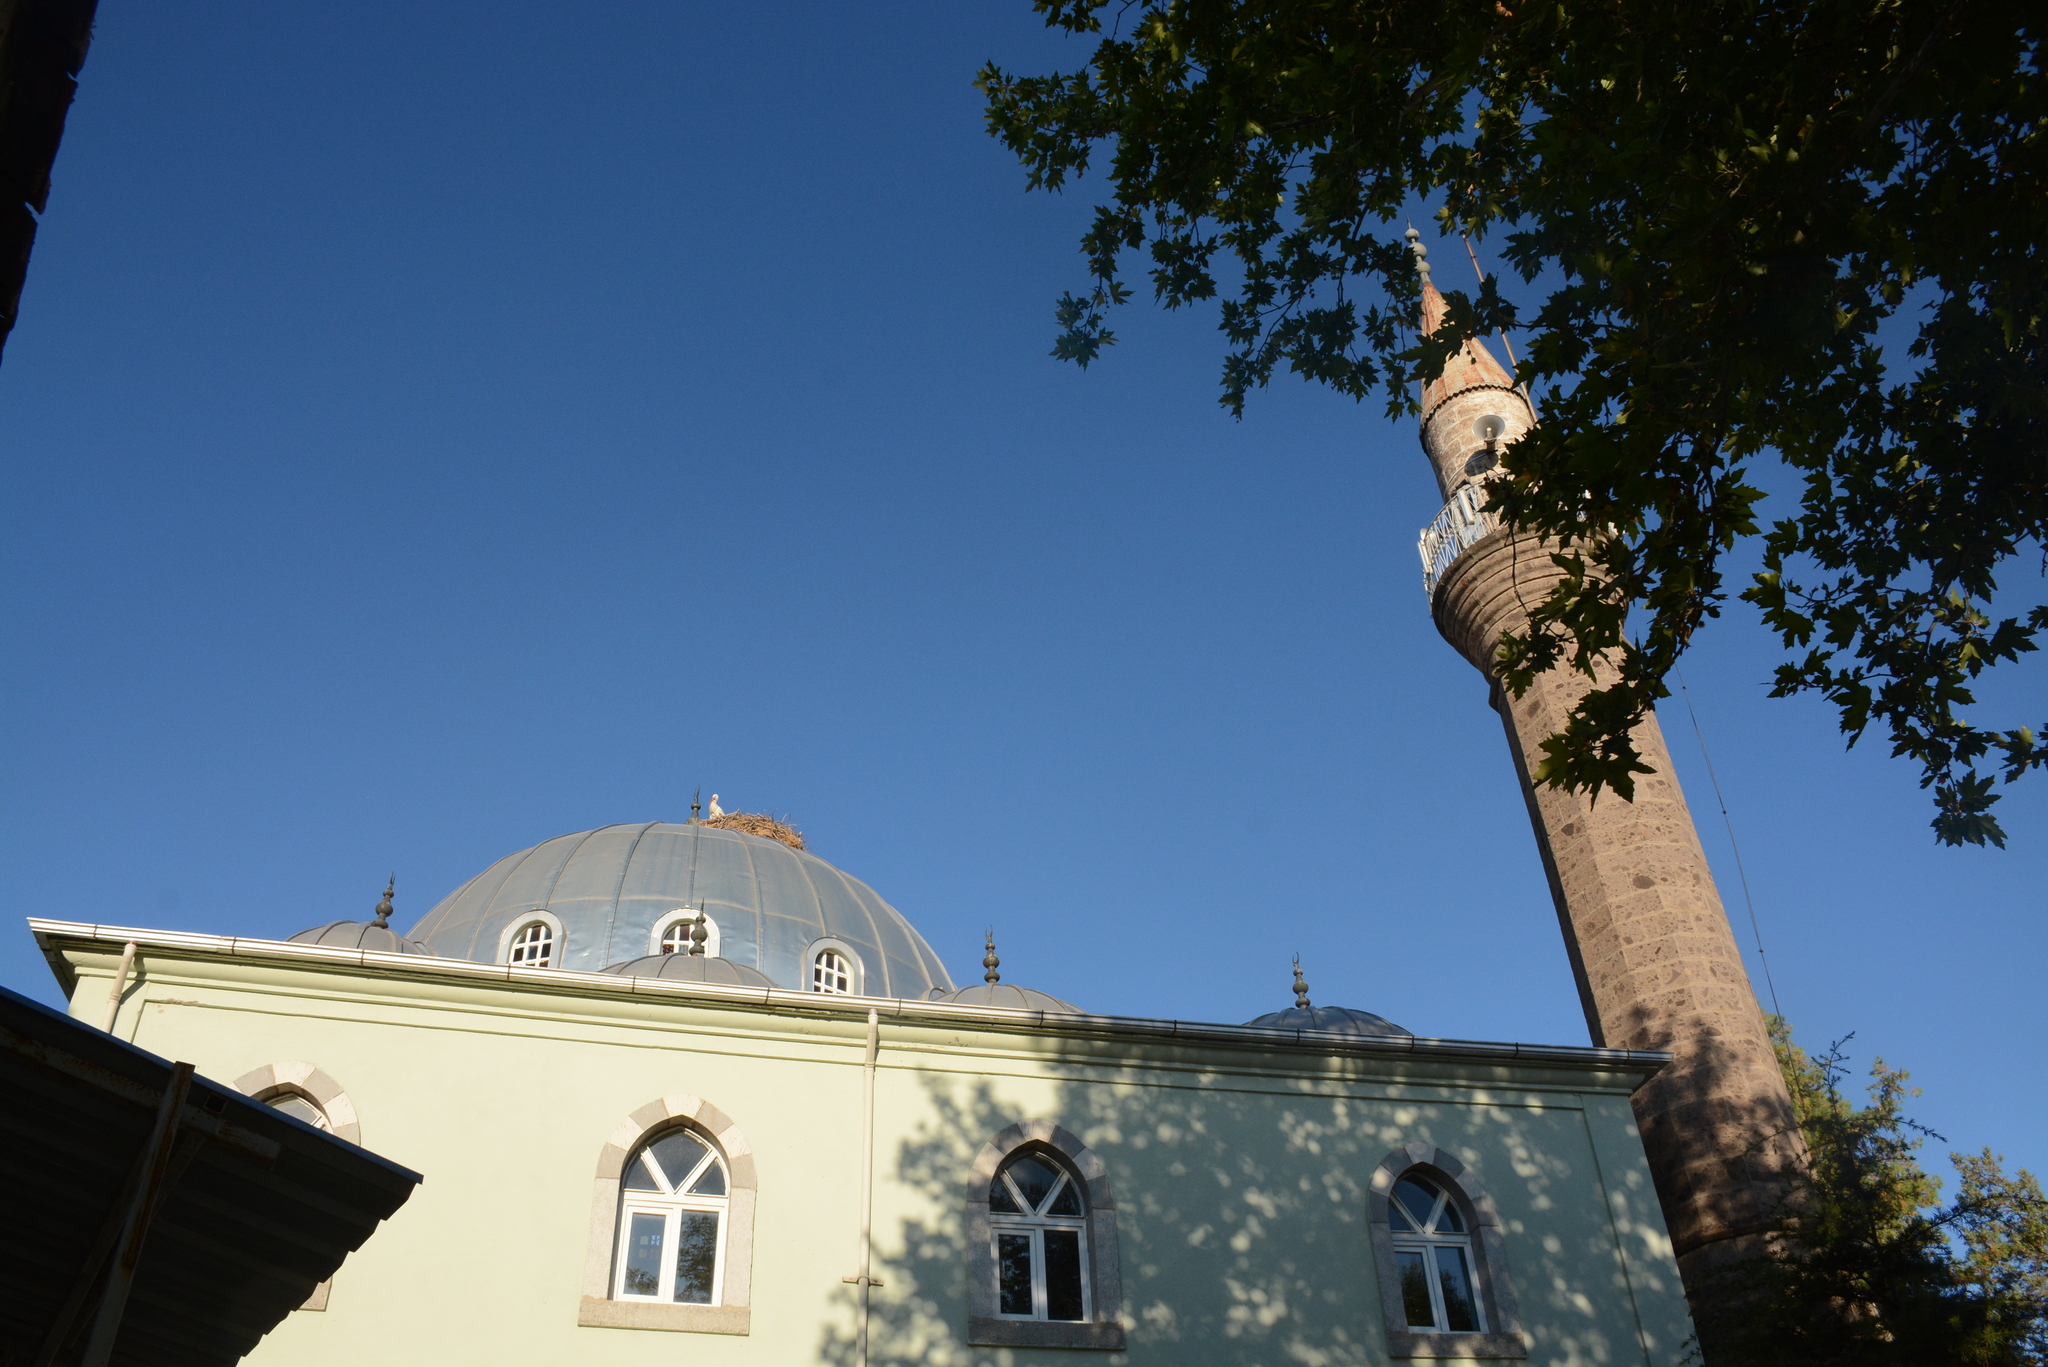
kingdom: Animalia
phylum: Chordata
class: Aves
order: Ciconiiformes
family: Ciconiidae
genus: Ciconia
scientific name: Ciconia ciconia
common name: White stork
